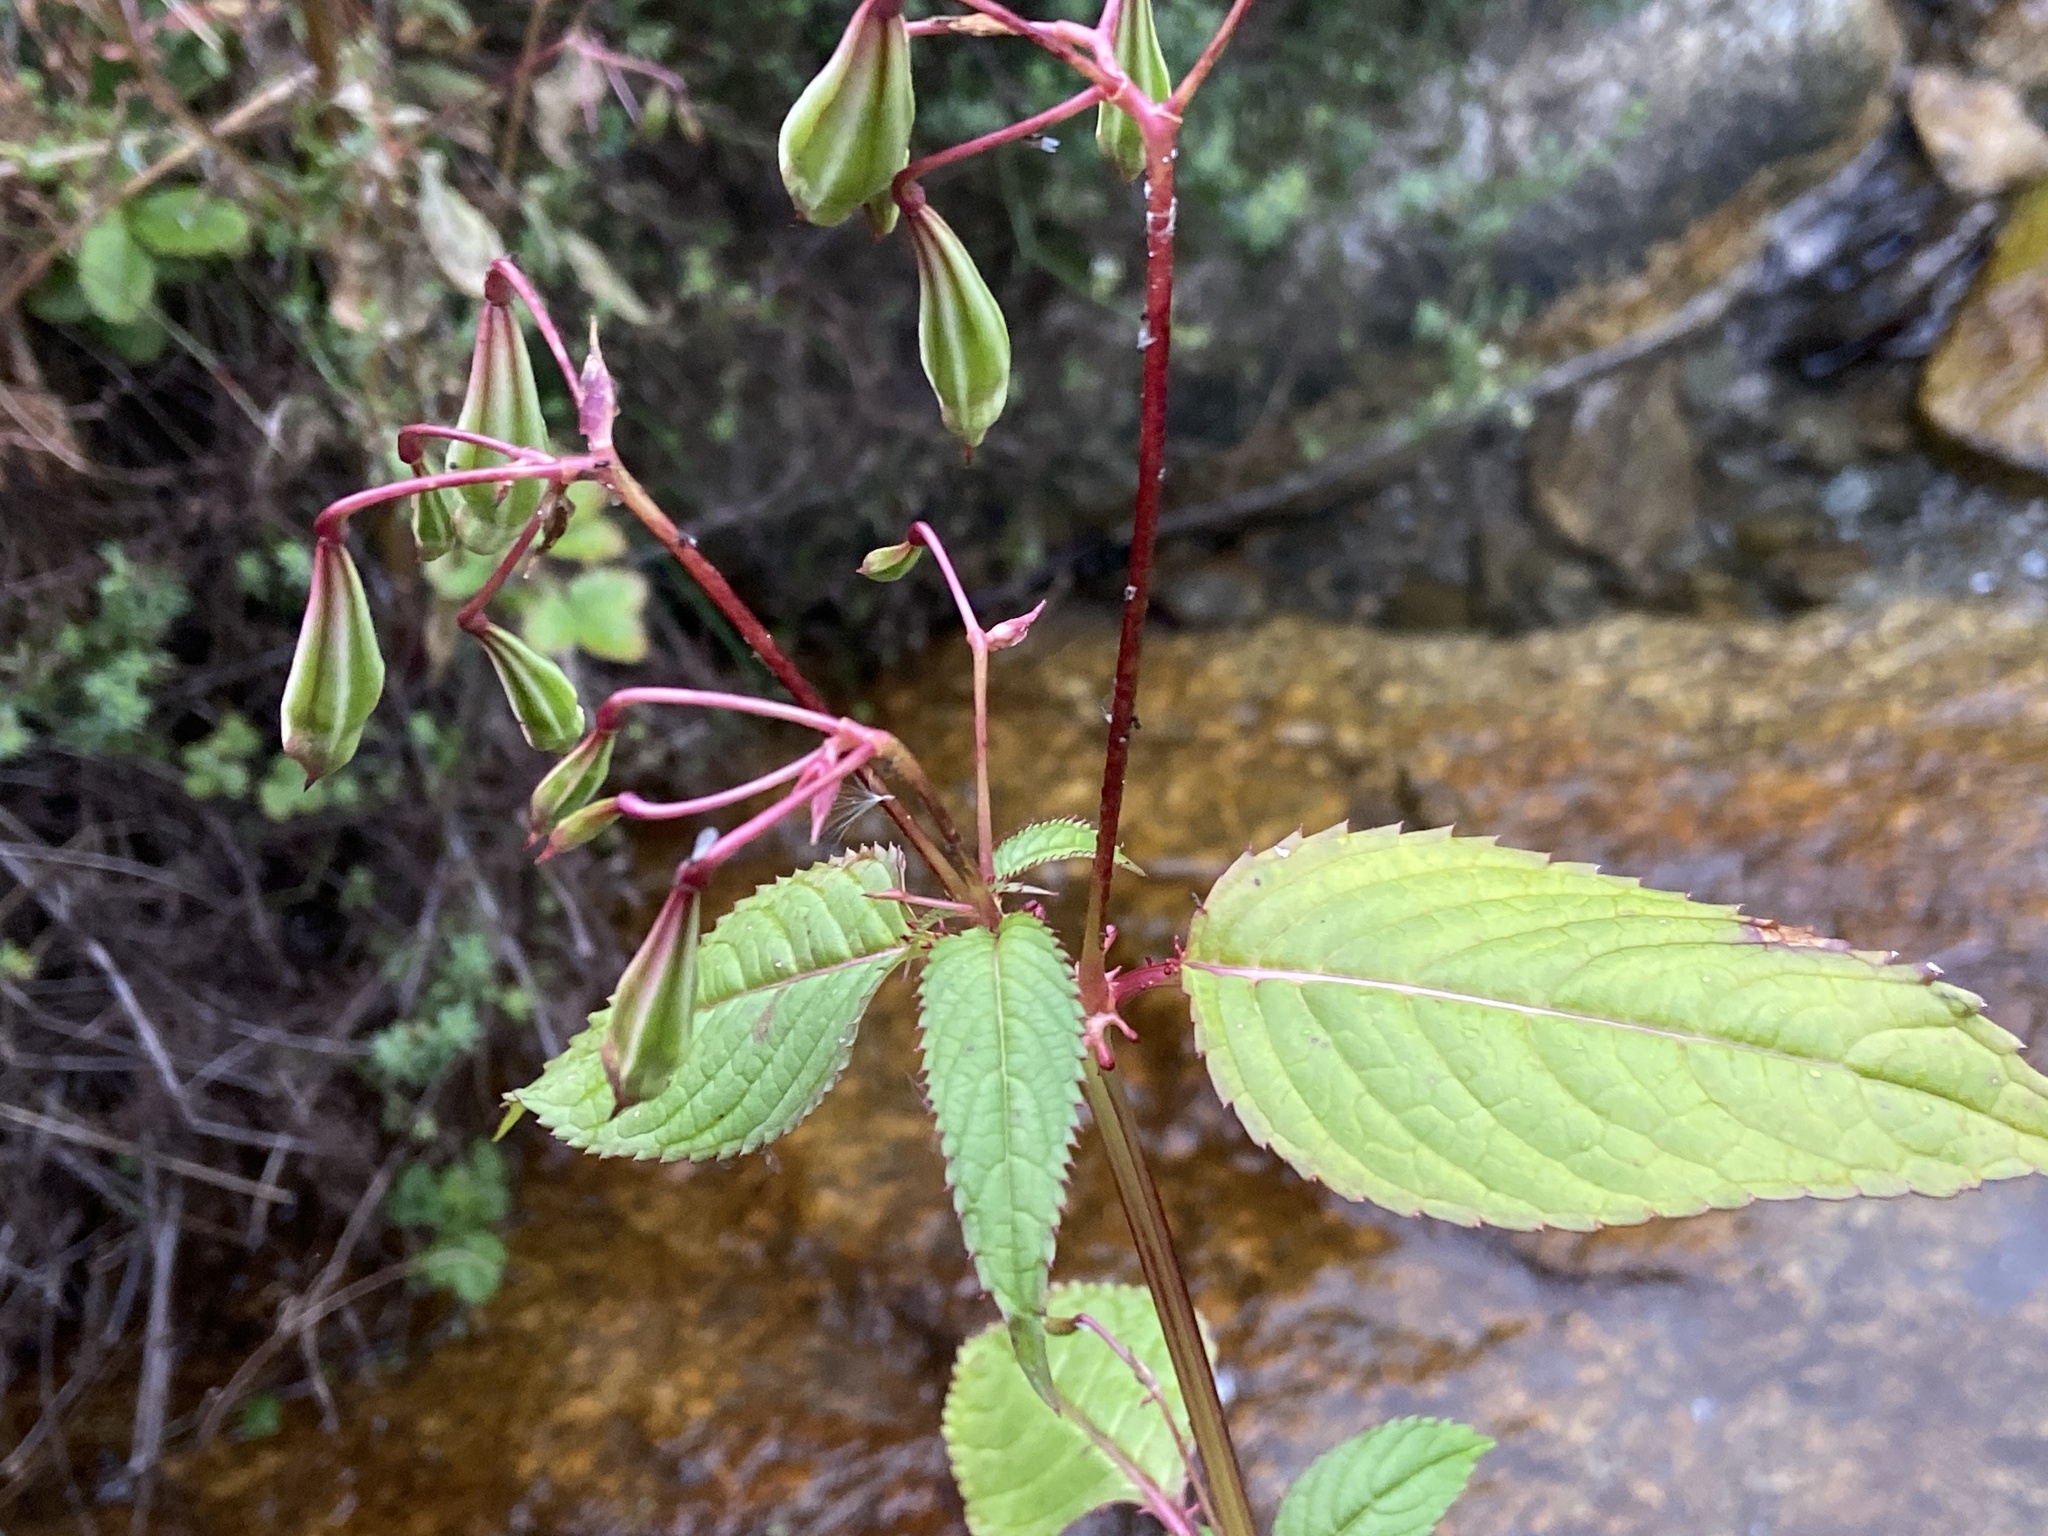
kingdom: Plantae
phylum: Tracheophyta
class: Magnoliopsida
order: Ericales
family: Balsaminaceae
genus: Impatiens
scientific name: Impatiens glandulifera
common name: Himalayan balsam
